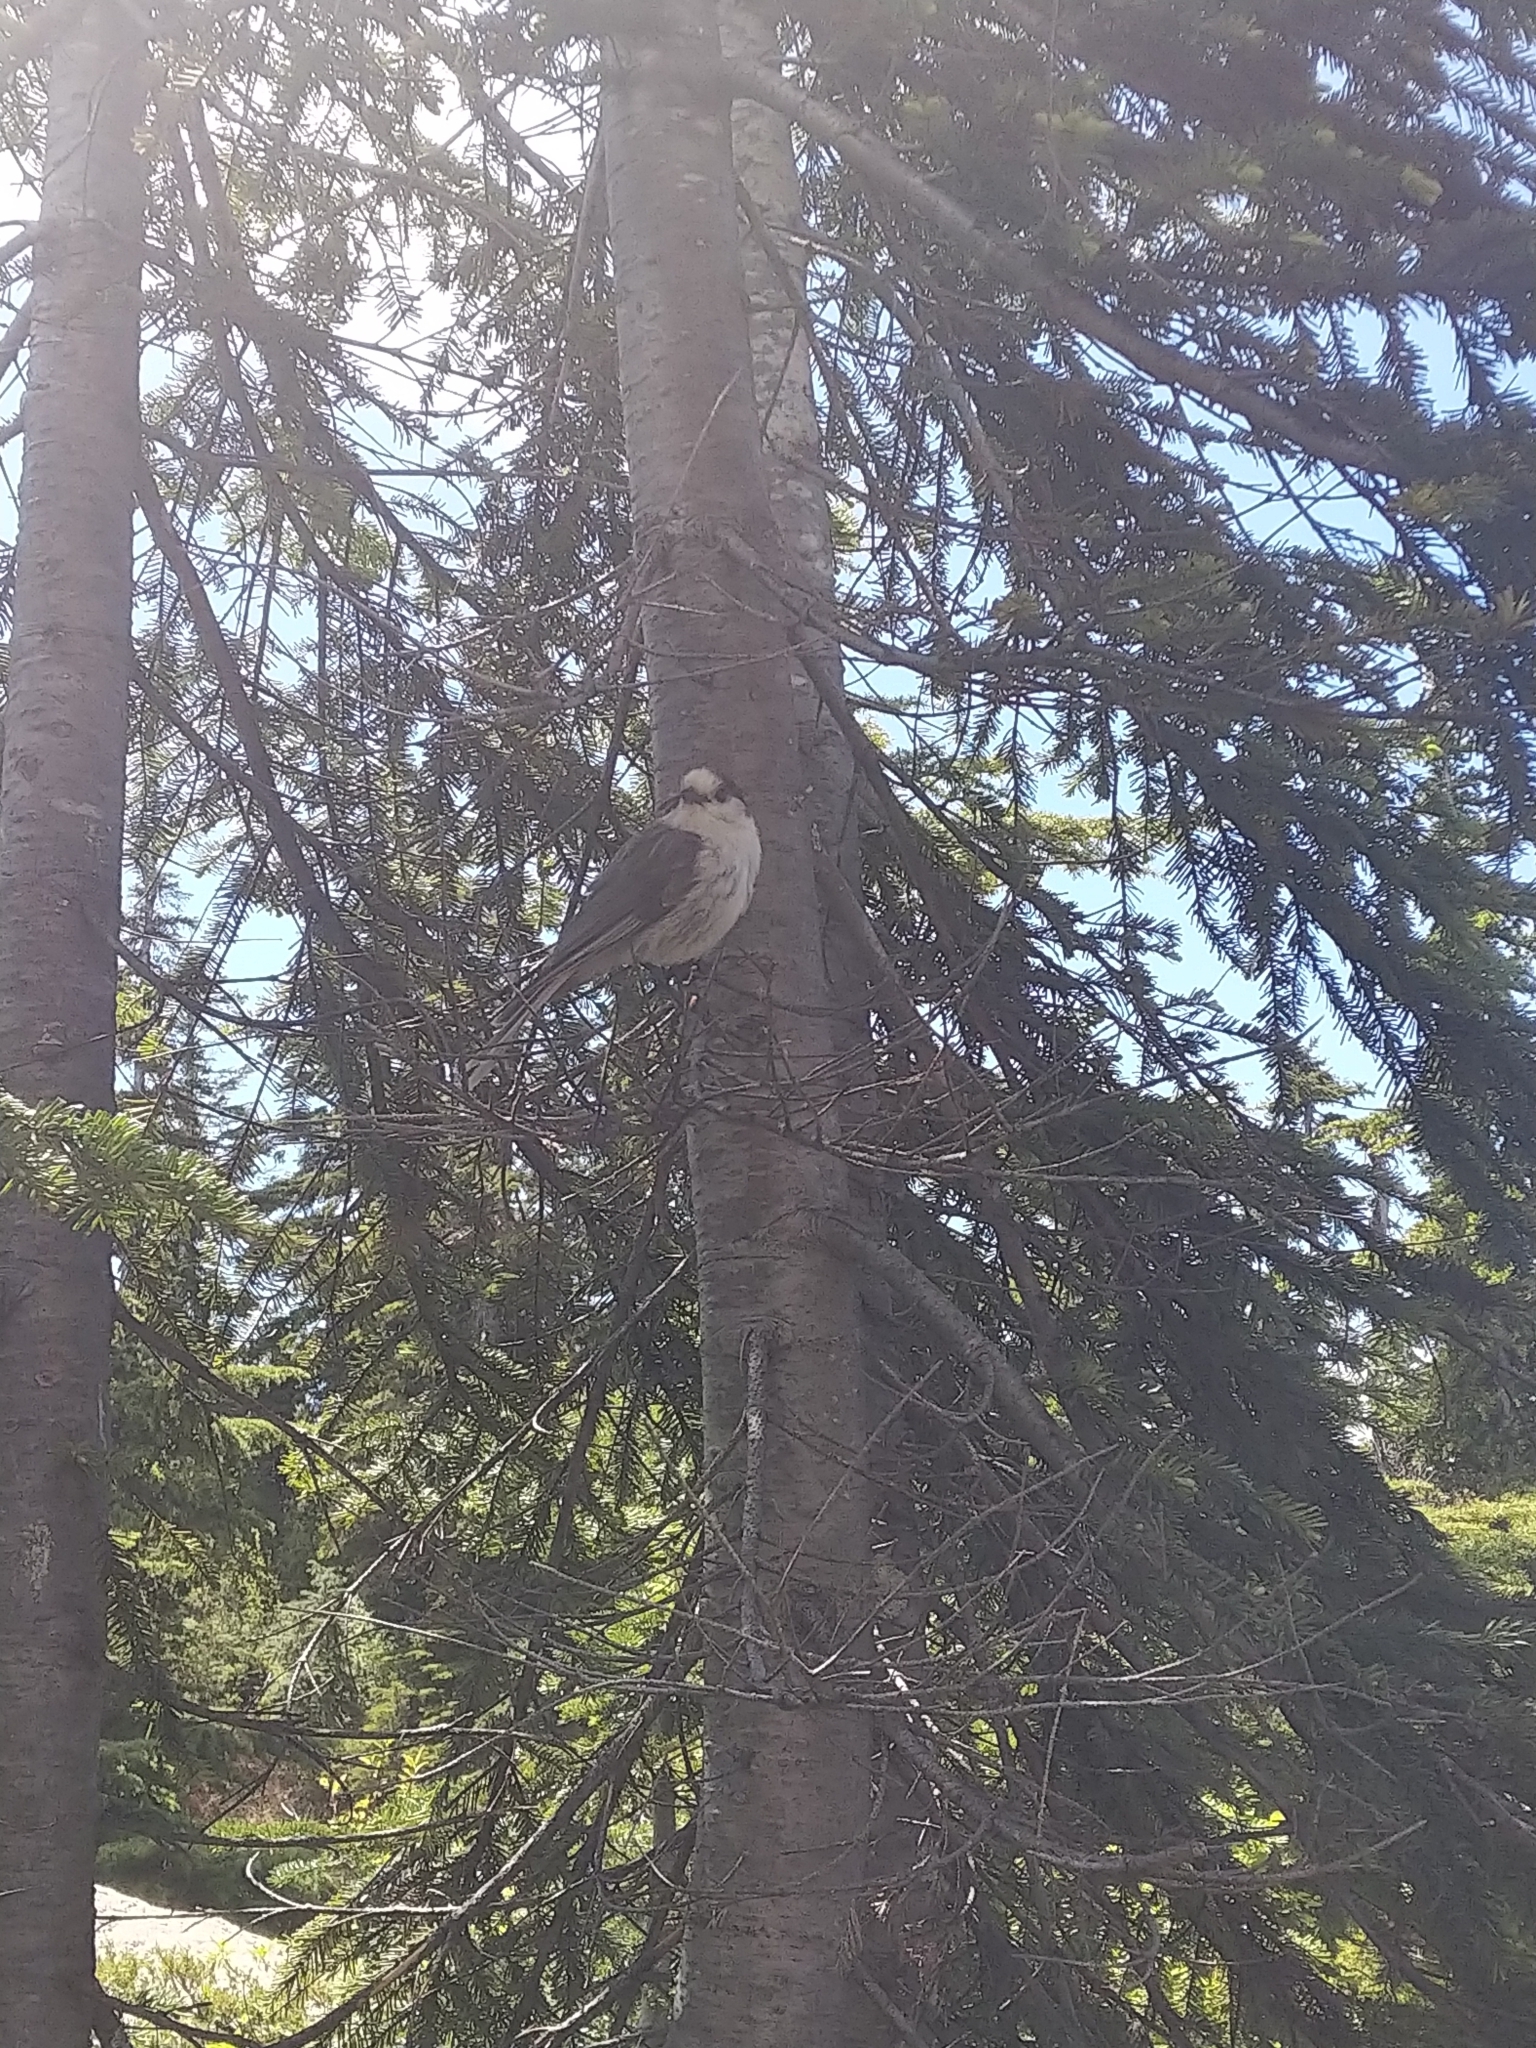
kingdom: Animalia
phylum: Chordata
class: Aves
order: Passeriformes
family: Corvidae
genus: Perisoreus
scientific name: Perisoreus canadensis
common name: Gray jay
